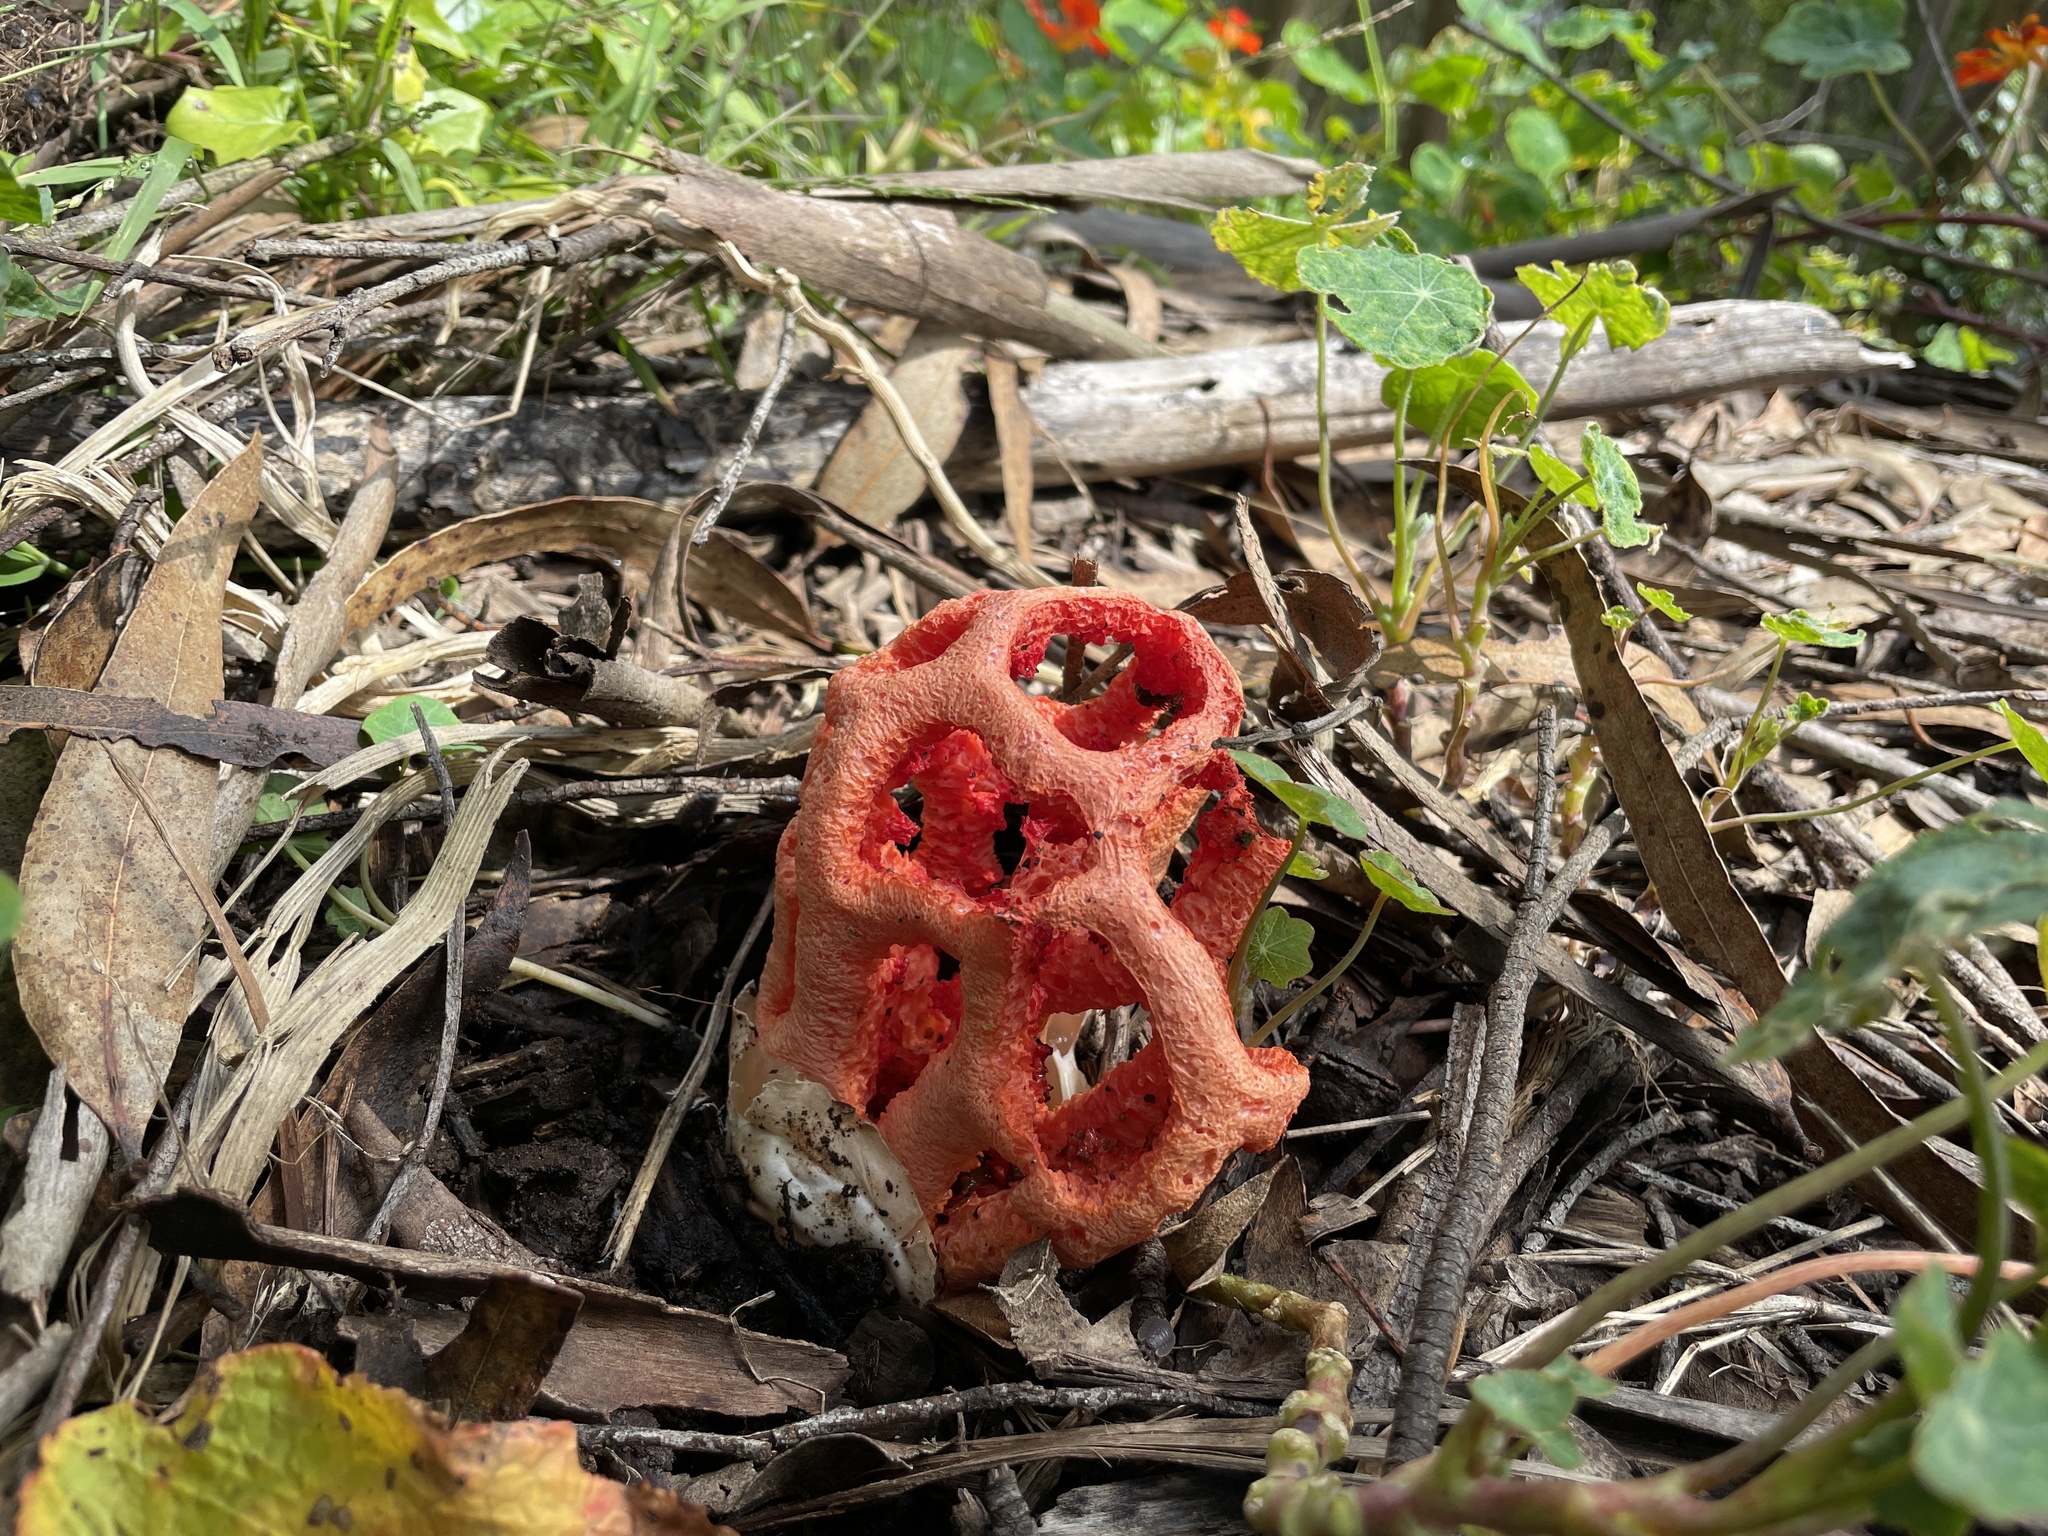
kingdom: Fungi
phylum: Basidiomycota
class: Agaricomycetes
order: Phallales
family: Phallaceae
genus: Clathrus
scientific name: Clathrus ruber
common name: Red cage
